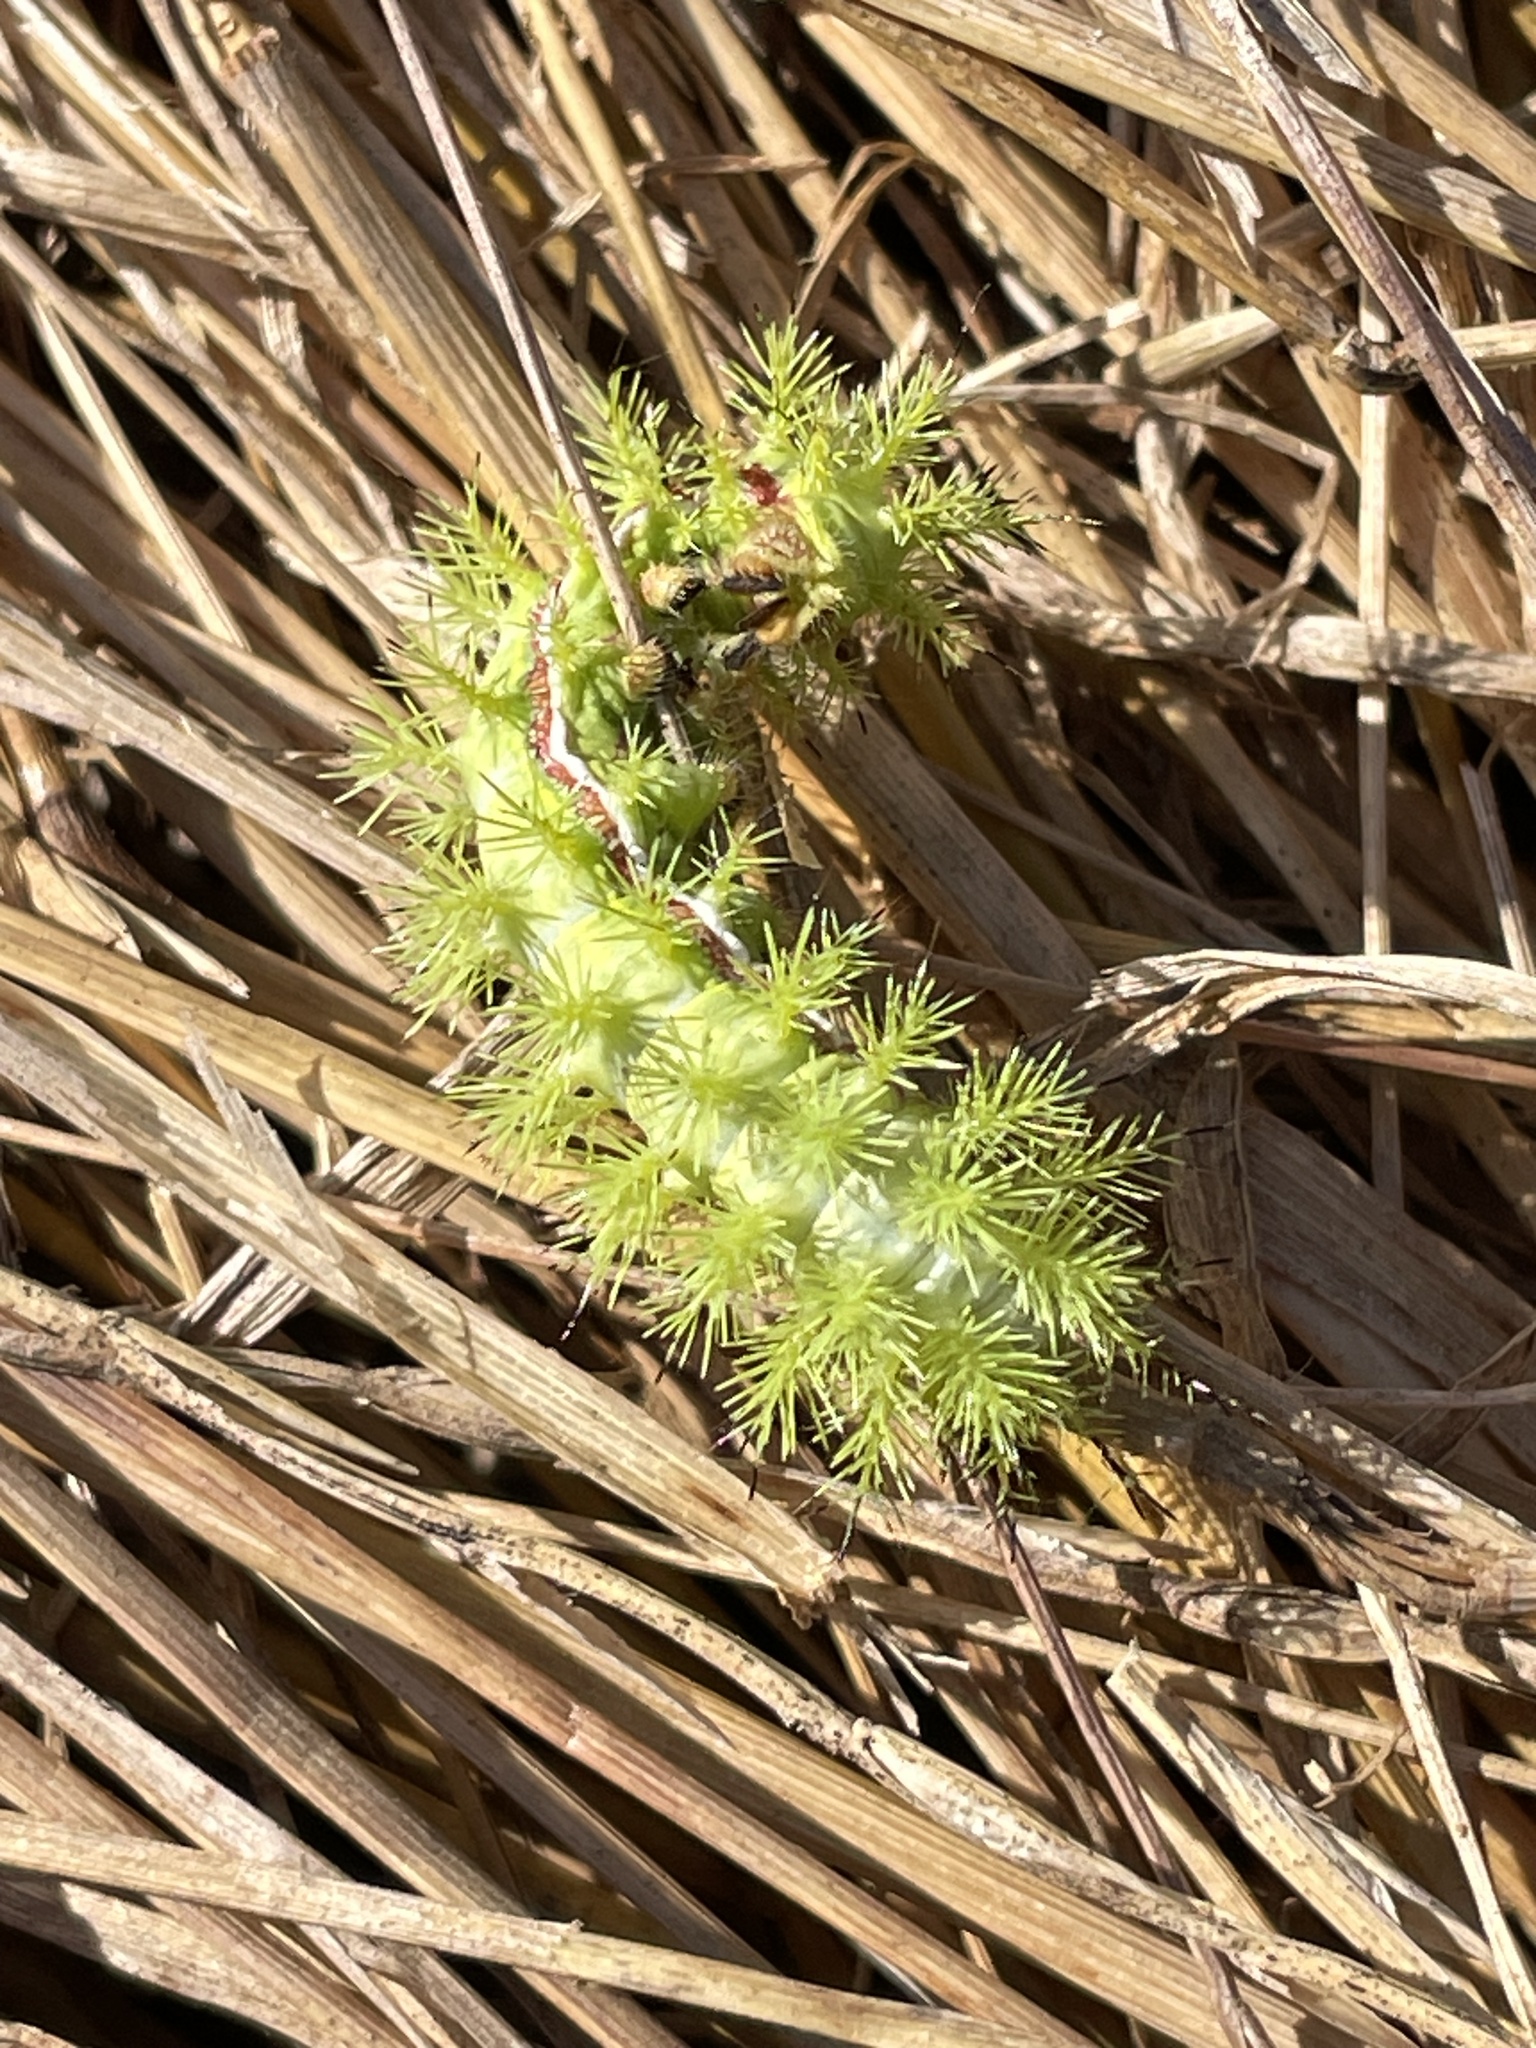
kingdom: Animalia
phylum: Arthropoda
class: Insecta
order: Lepidoptera
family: Saturniidae
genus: Automeris
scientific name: Automeris io
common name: Io moth
